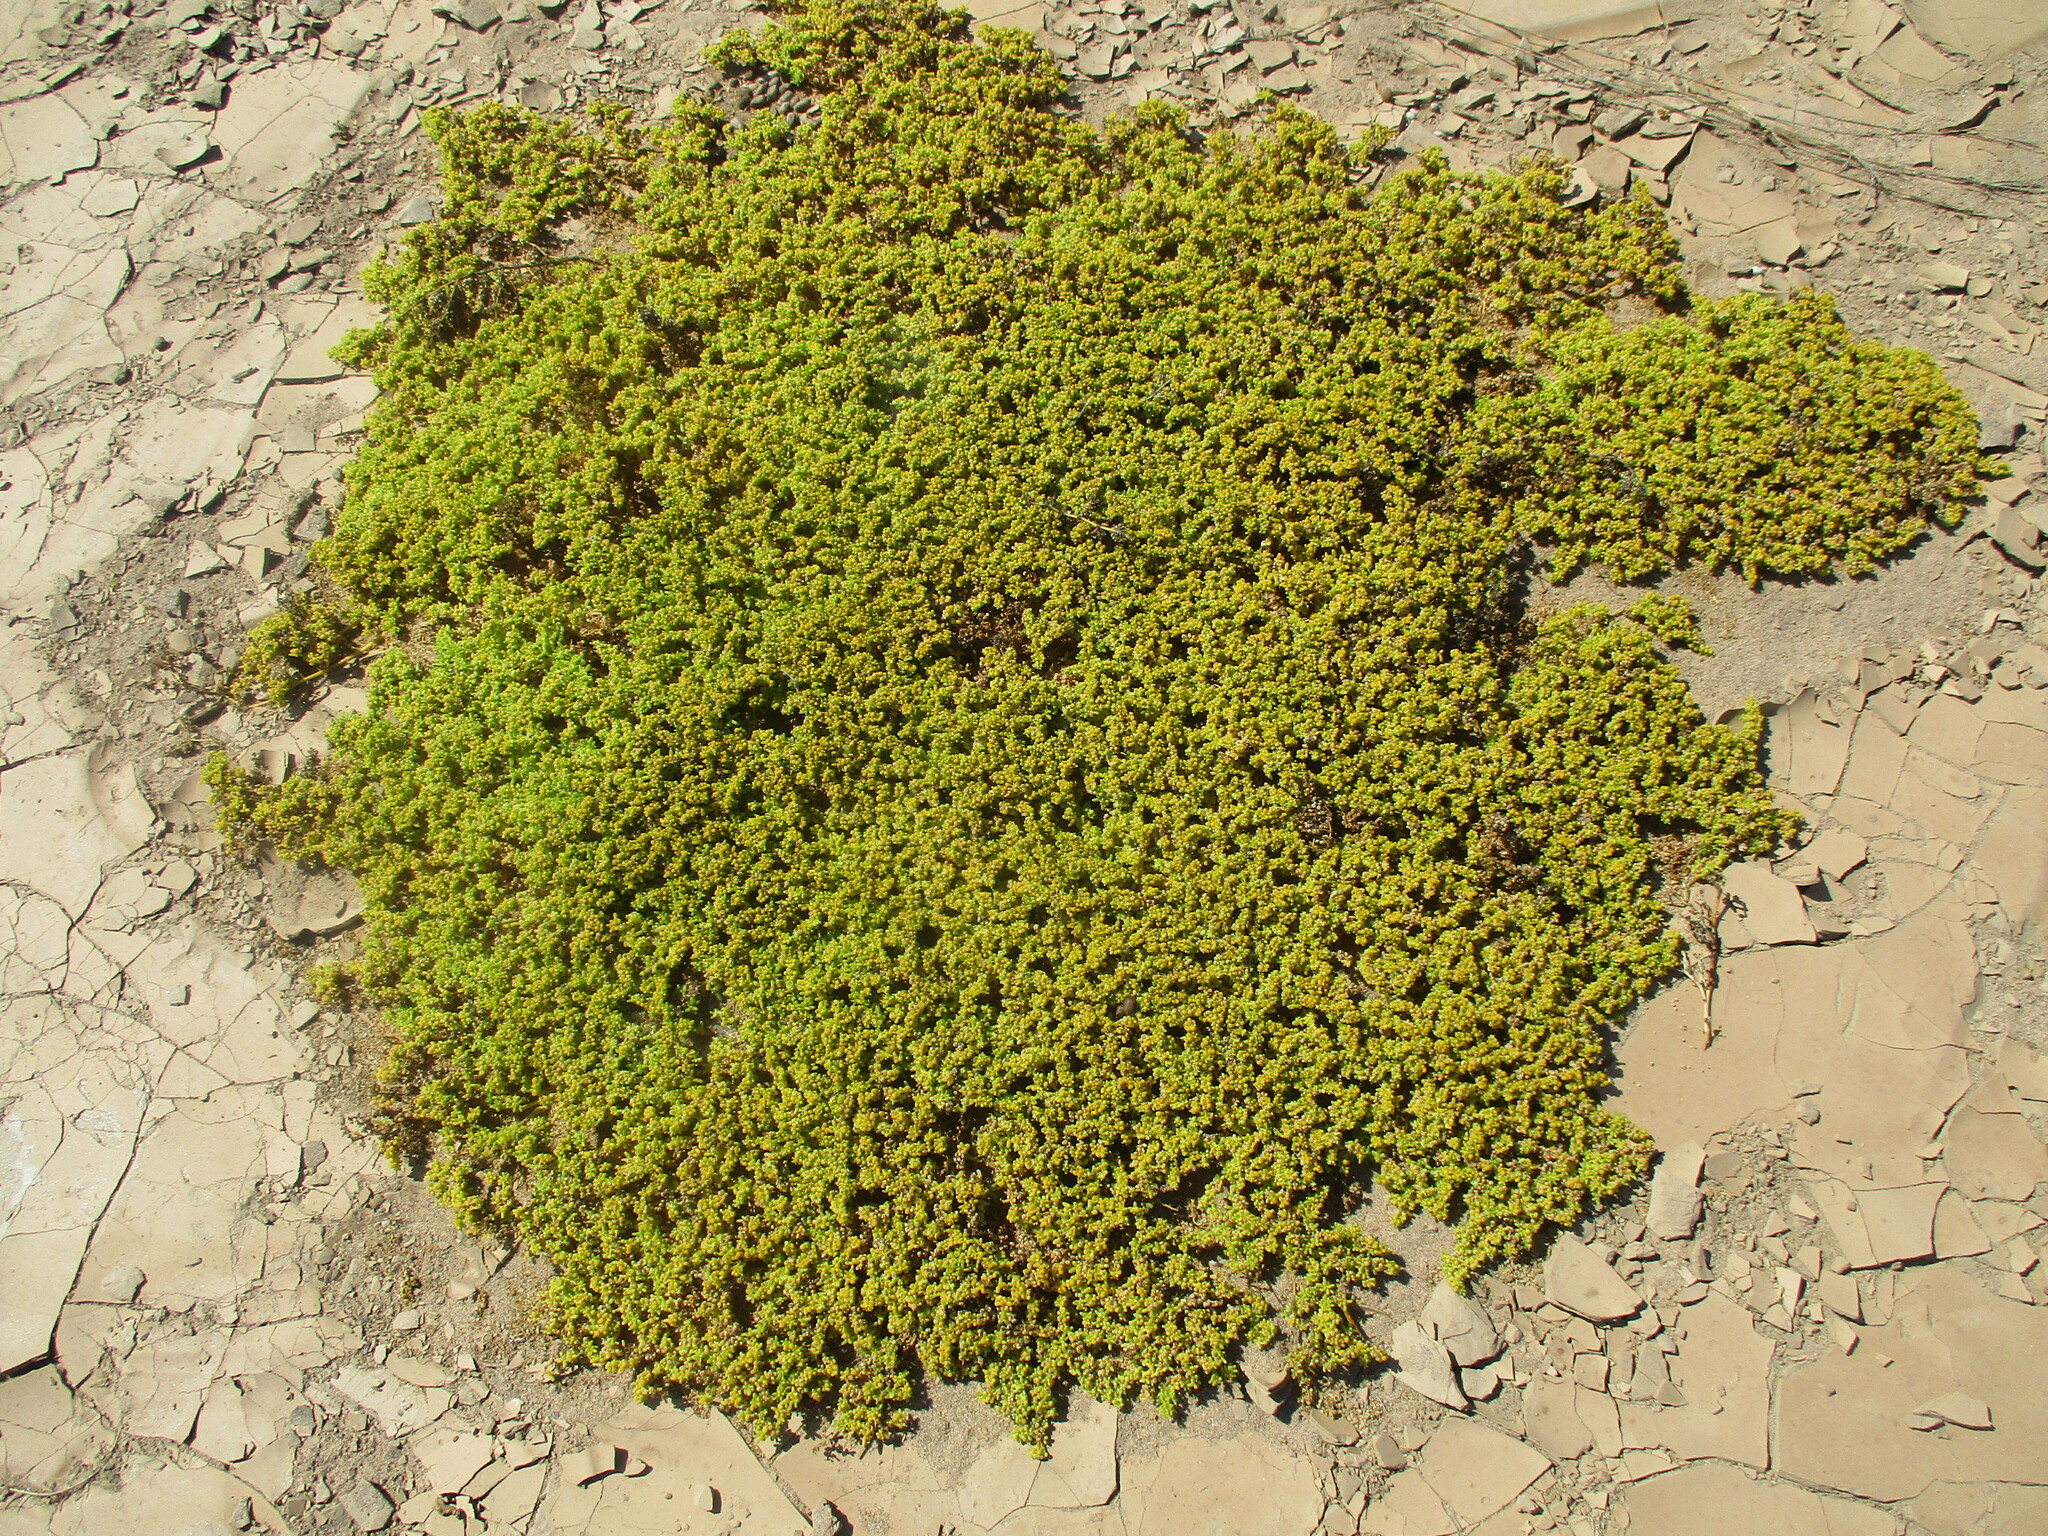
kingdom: Plantae
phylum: Tracheophyta
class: Magnoliopsida
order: Zygophyllales
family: Zygophyllaceae
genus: Tetraena
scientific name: Tetraena simplex
